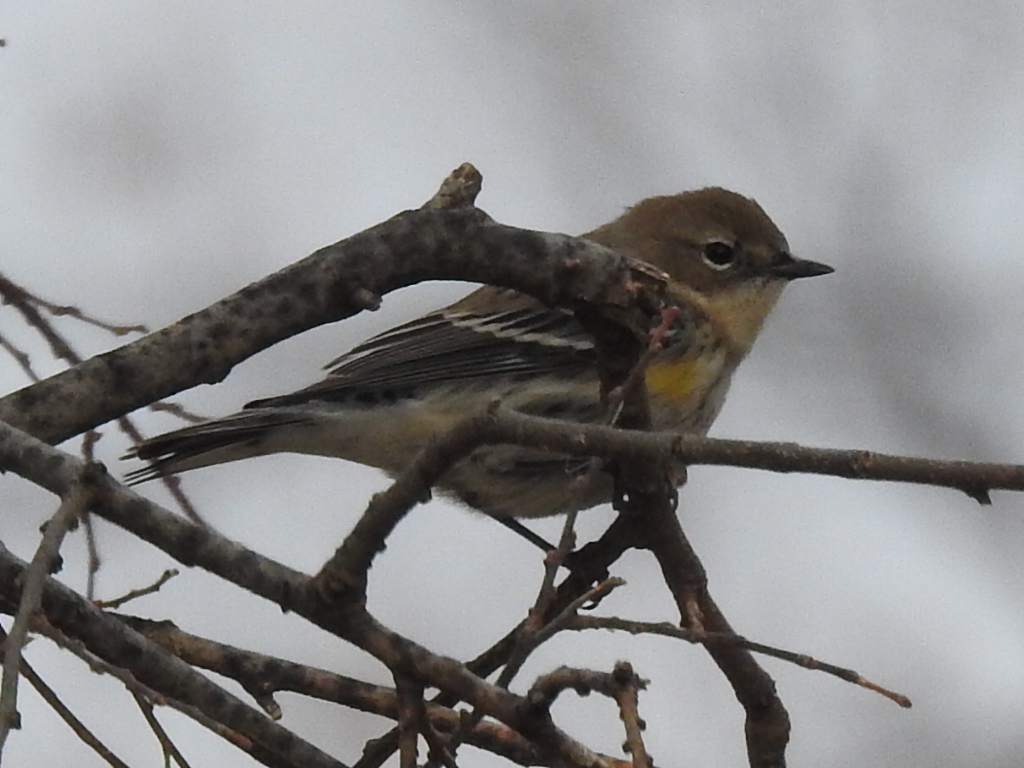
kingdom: Animalia
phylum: Chordata
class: Aves
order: Passeriformes
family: Parulidae
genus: Setophaga
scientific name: Setophaga coronata
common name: Myrtle warbler
